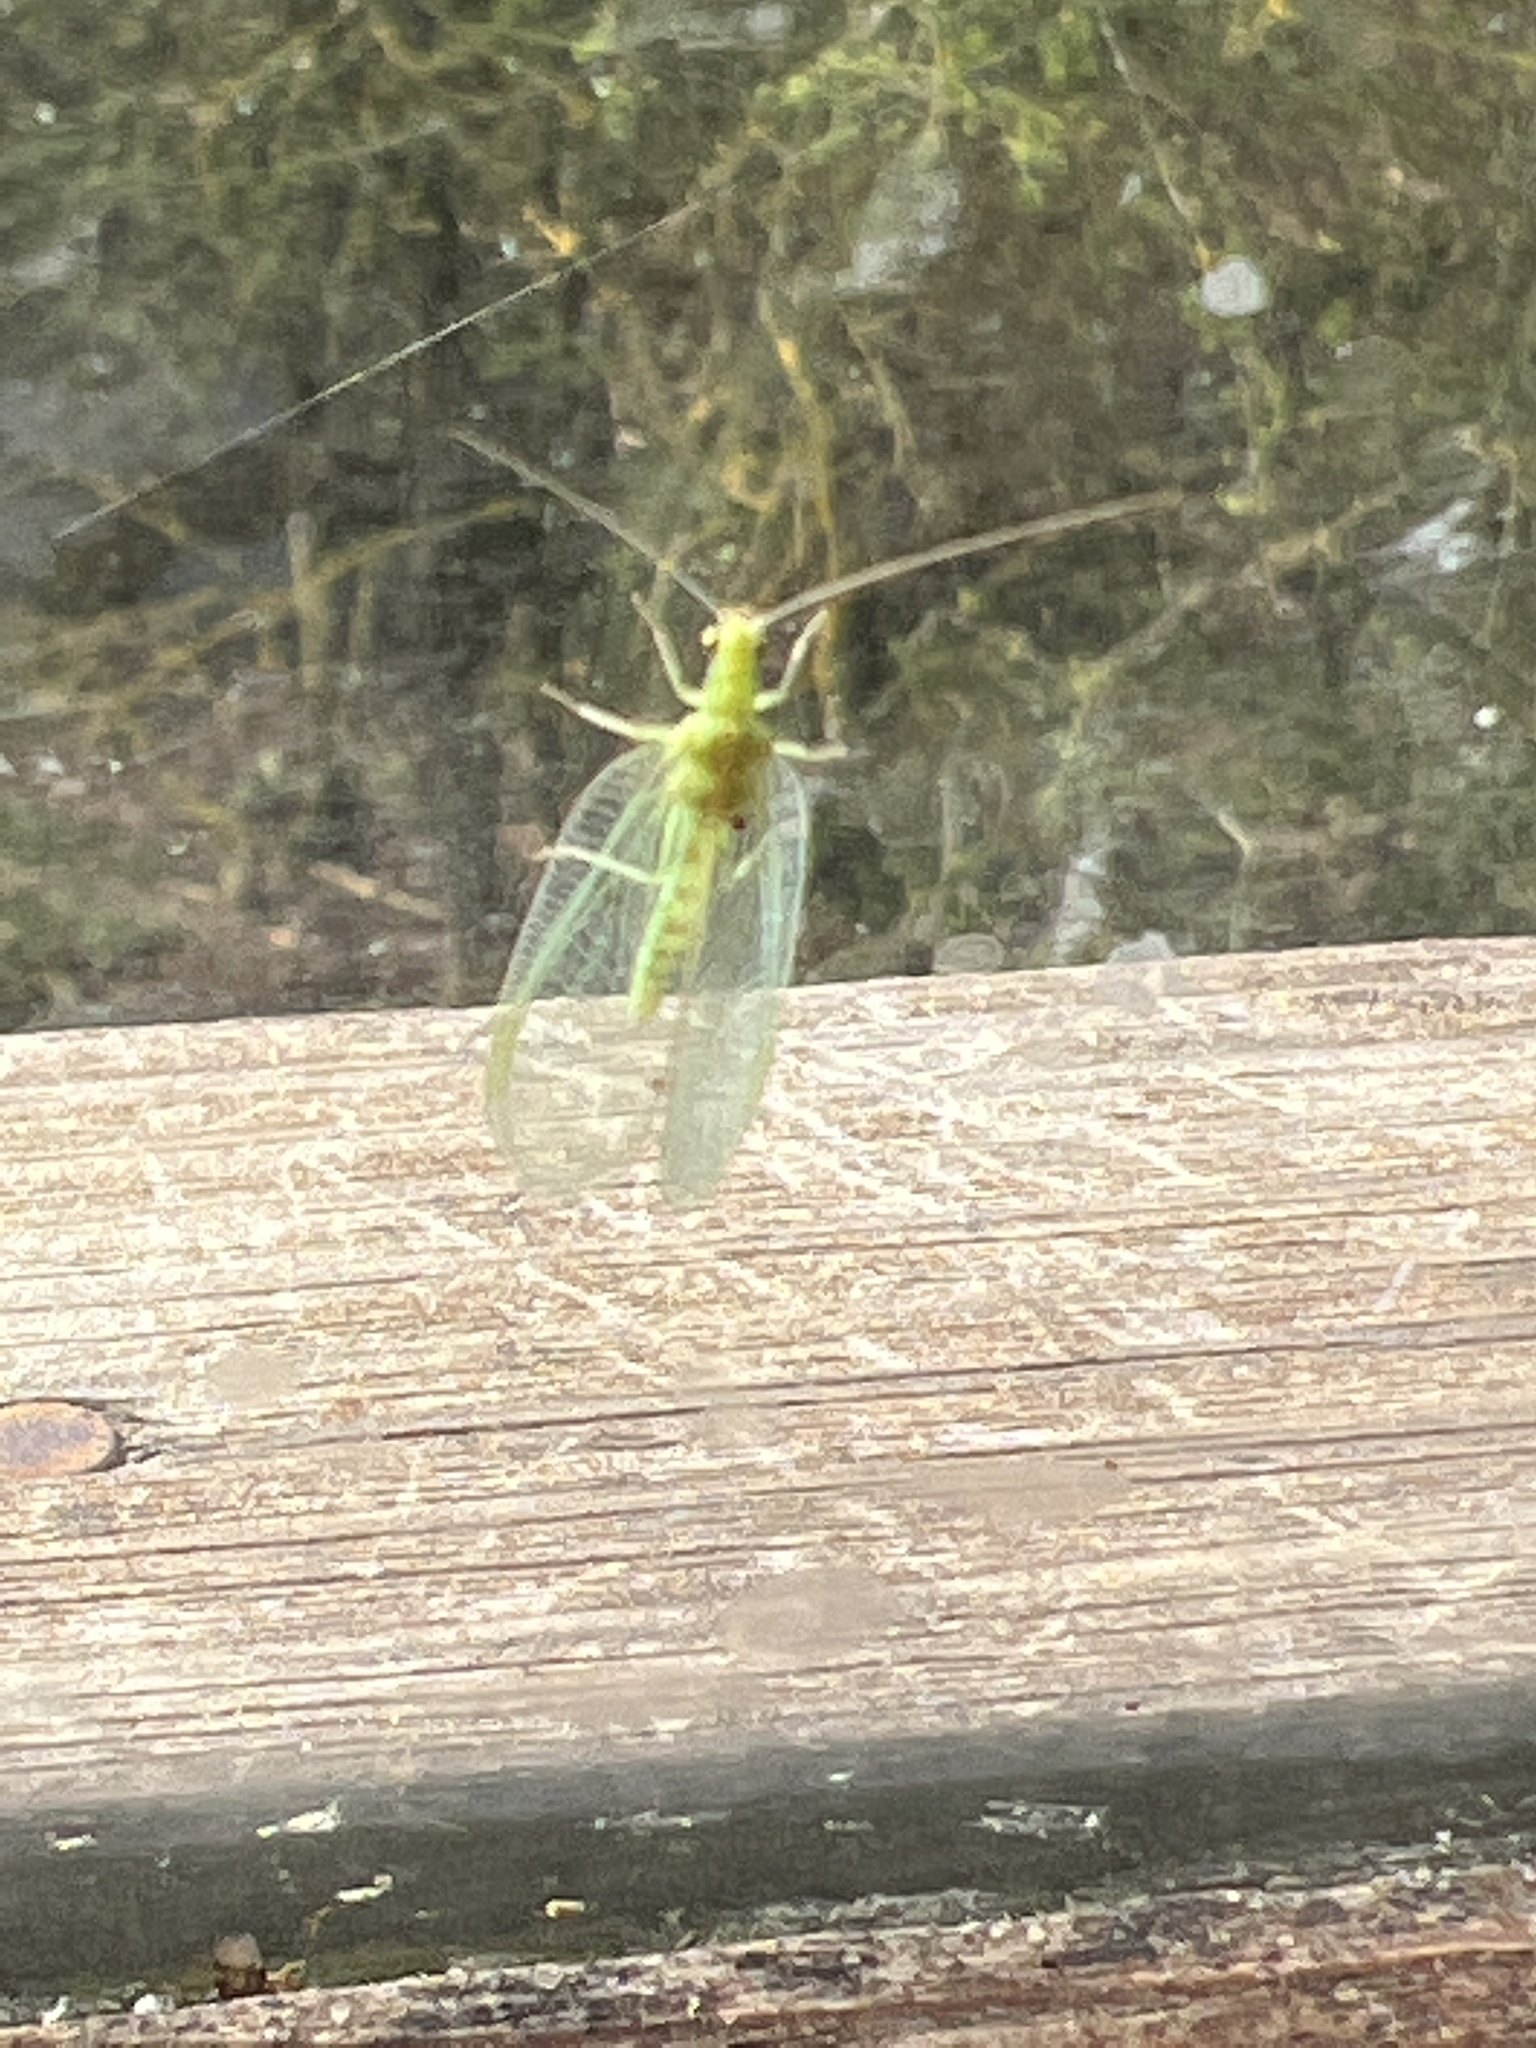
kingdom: Animalia
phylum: Arthropoda
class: Insecta
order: Neuroptera
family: Chrysopidae
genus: Chrysoperla
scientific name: Chrysoperla
